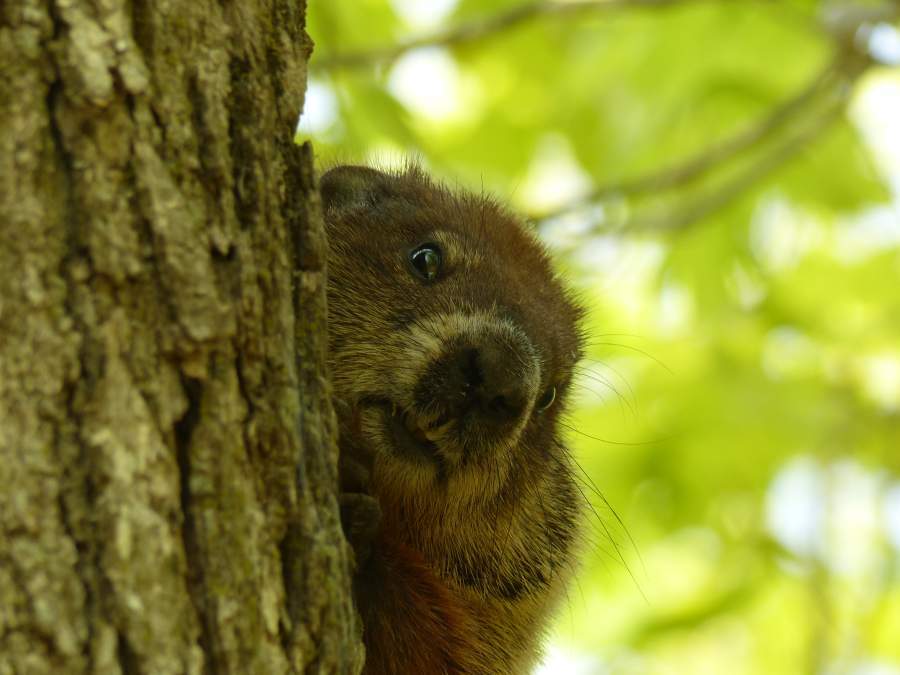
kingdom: Animalia
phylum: Chordata
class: Mammalia
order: Rodentia
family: Sciuridae
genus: Marmota
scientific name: Marmota monax
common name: Groundhog
